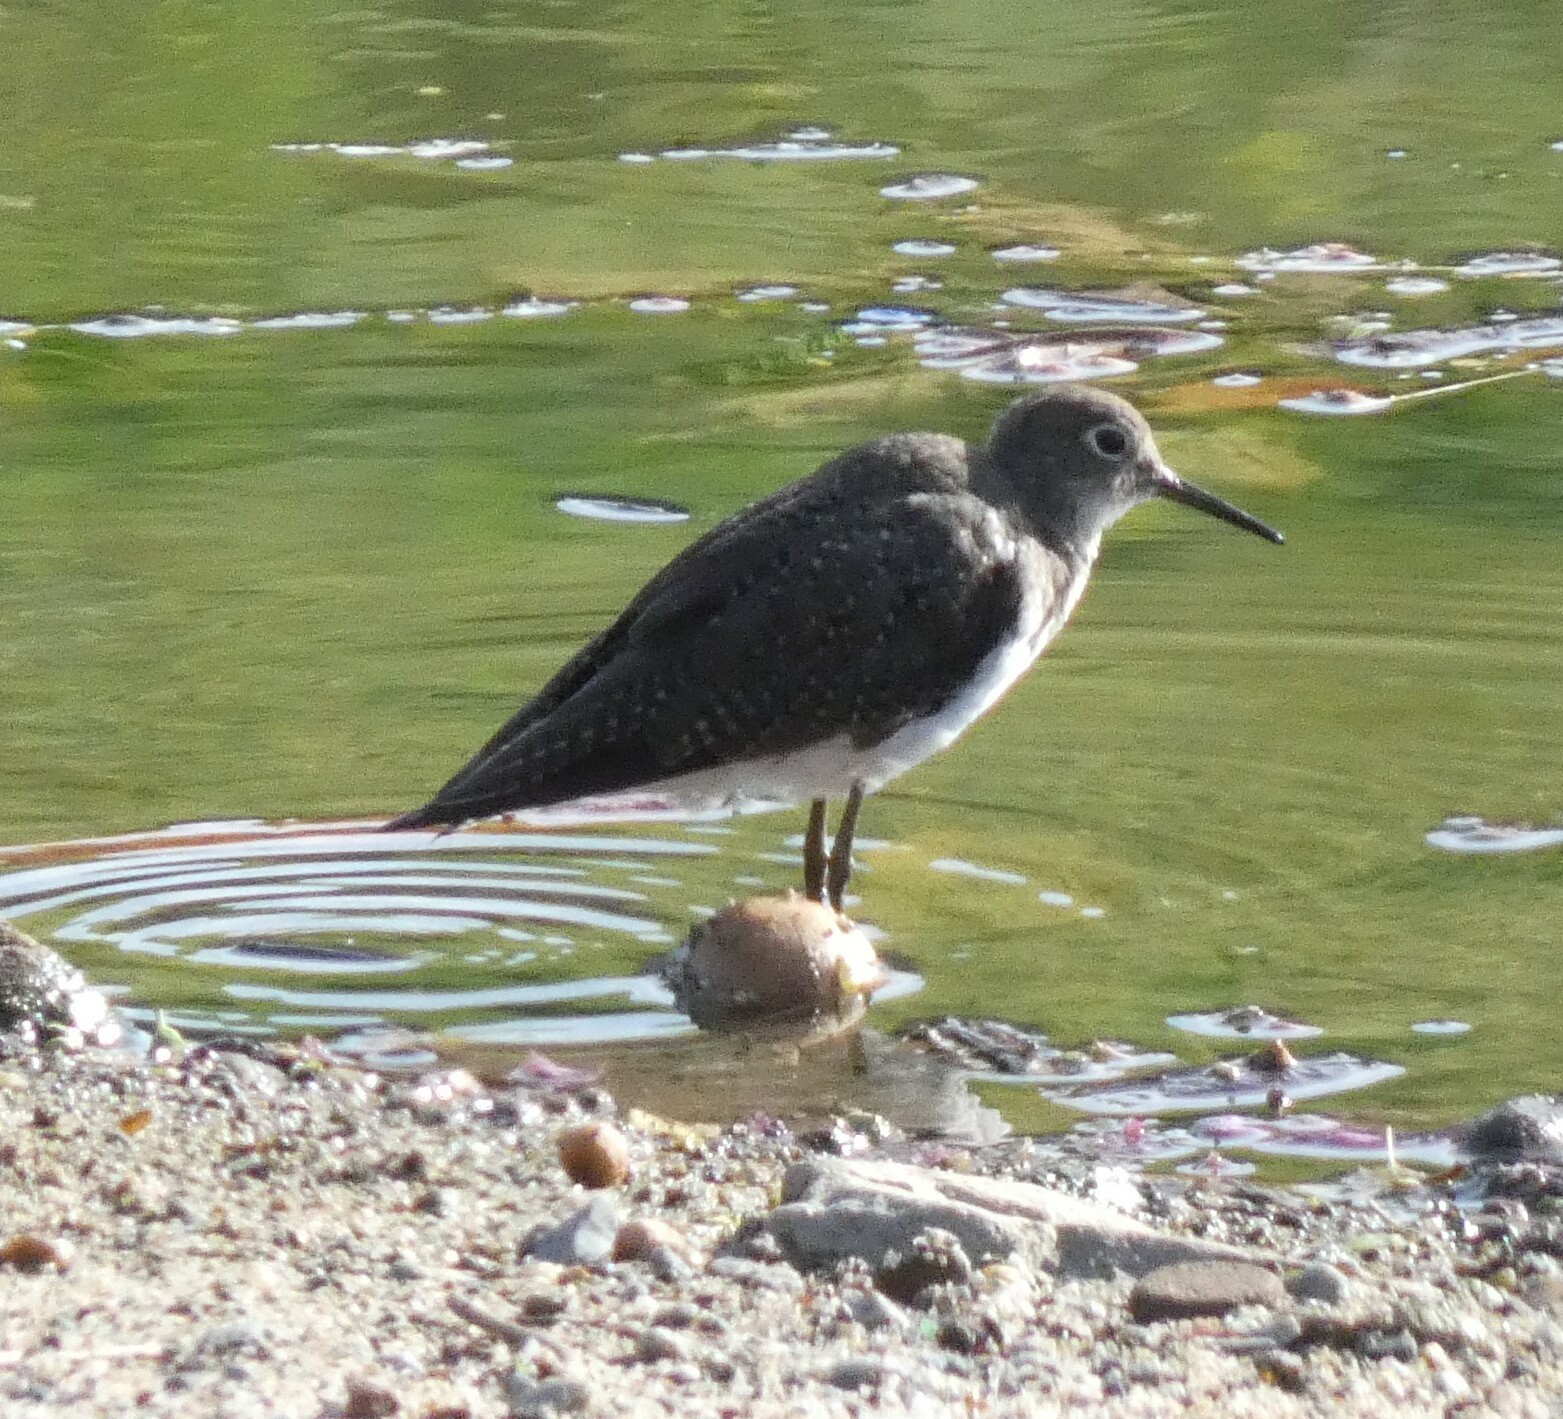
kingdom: Animalia
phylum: Chordata
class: Aves
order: Charadriiformes
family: Scolopacidae
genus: Tringa
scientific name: Tringa solitaria
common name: Solitary sandpiper
